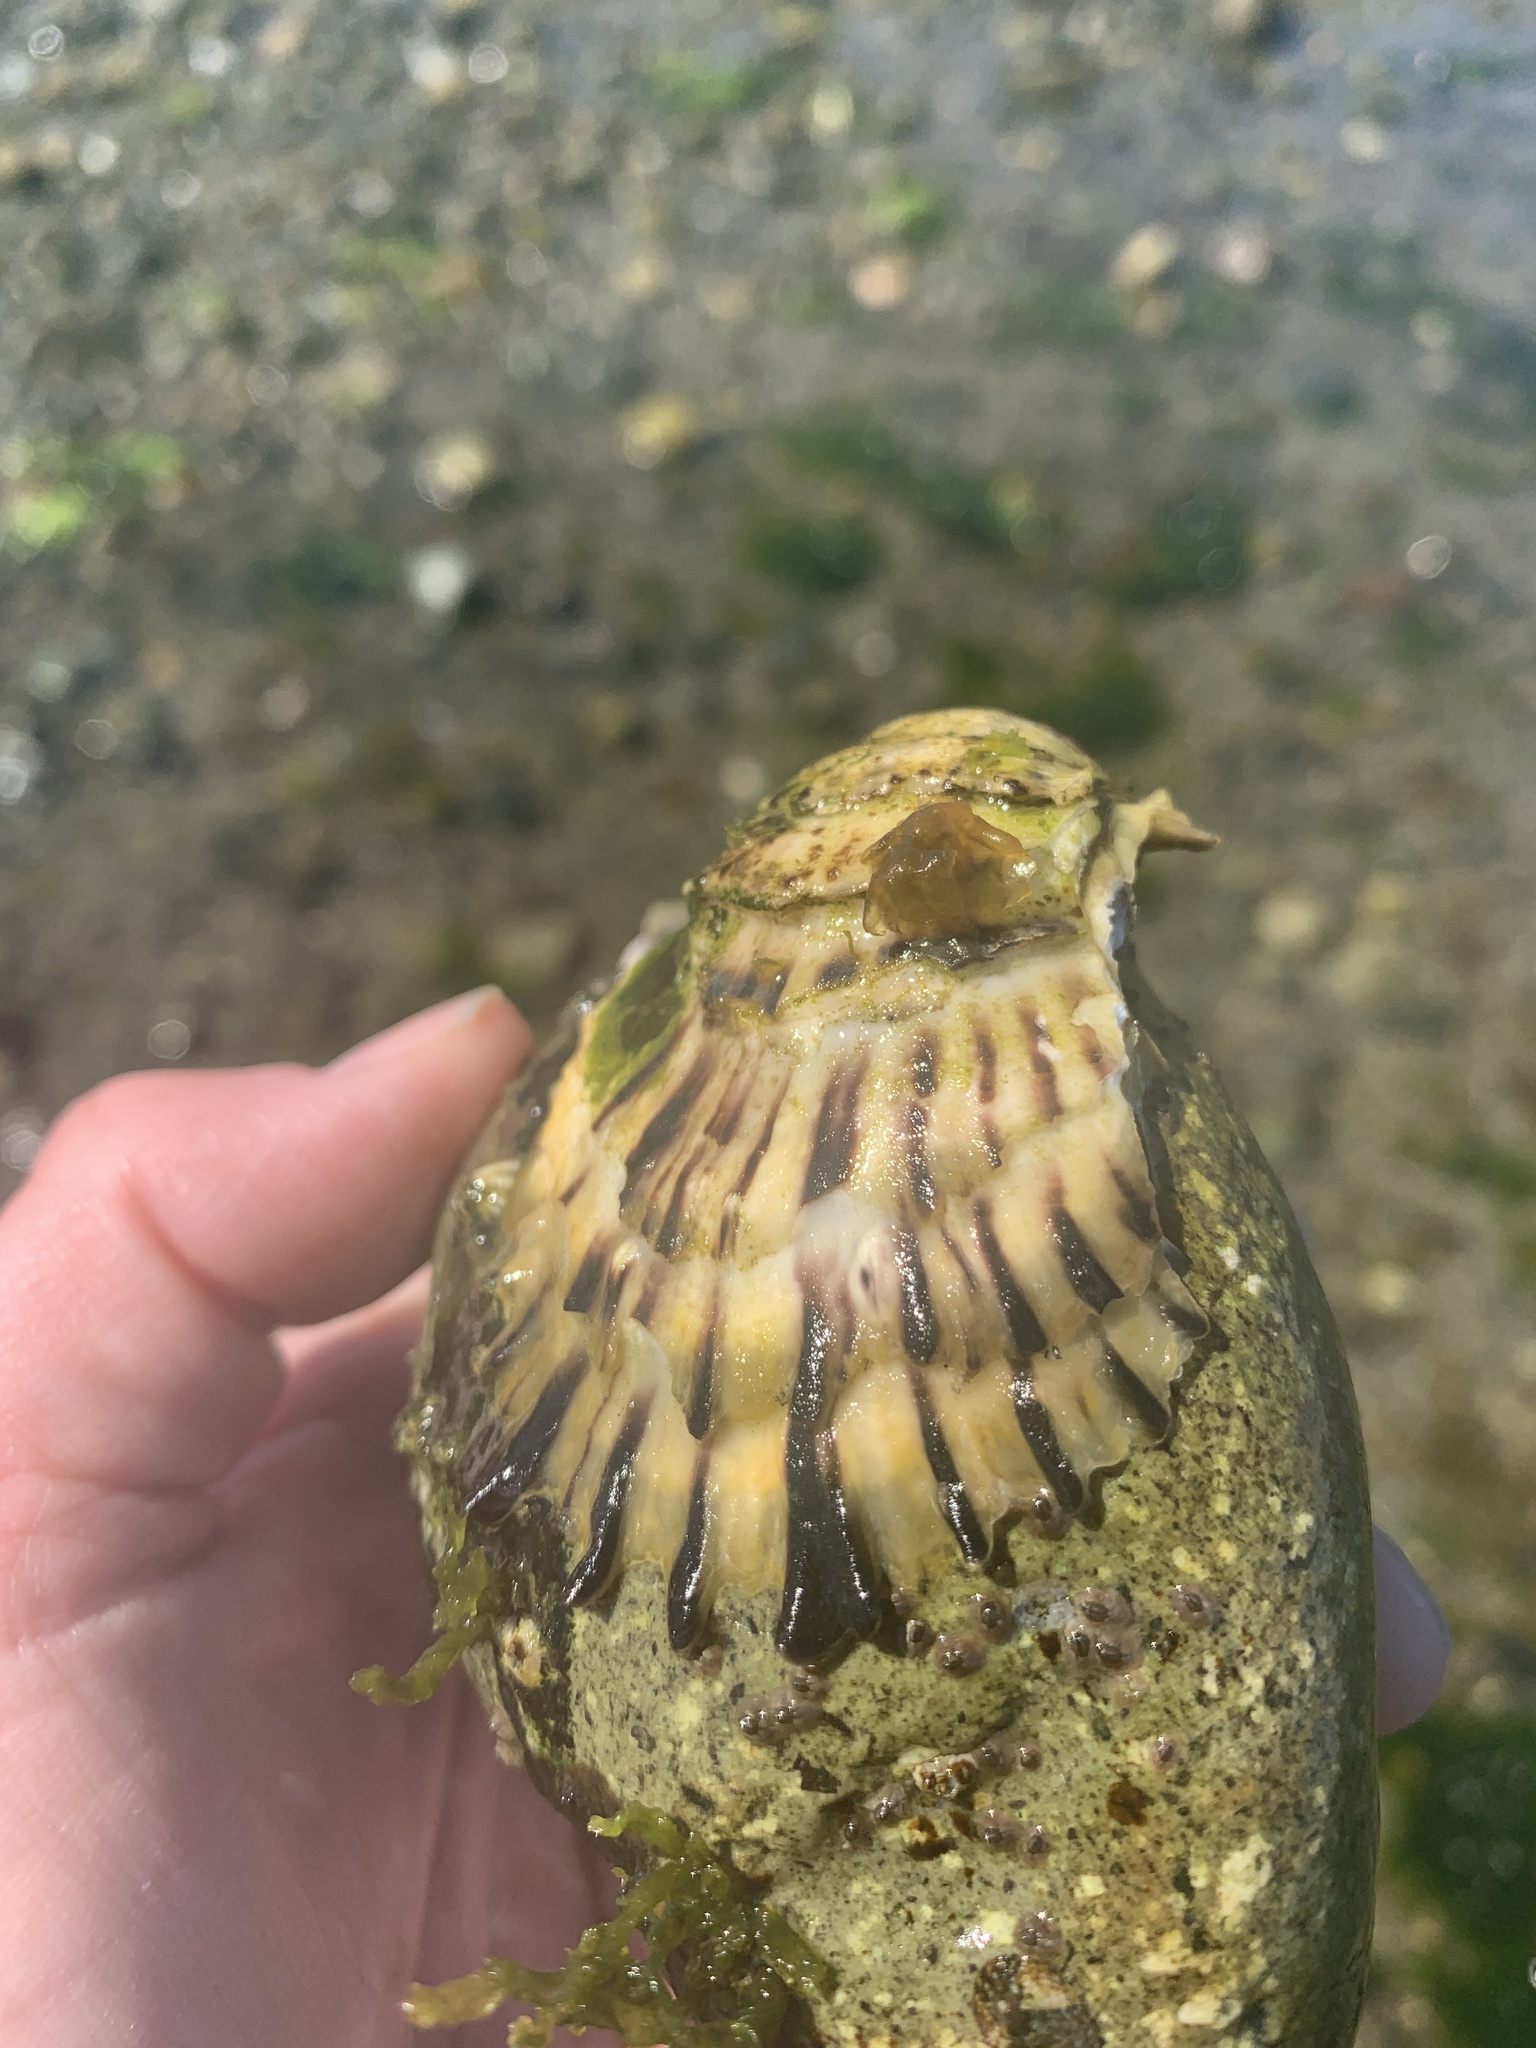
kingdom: Animalia
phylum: Mollusca
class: Bivalvia
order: Ostreida
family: Ostreidae
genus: Magallana
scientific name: Magallana gigas
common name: Pacific oyster
